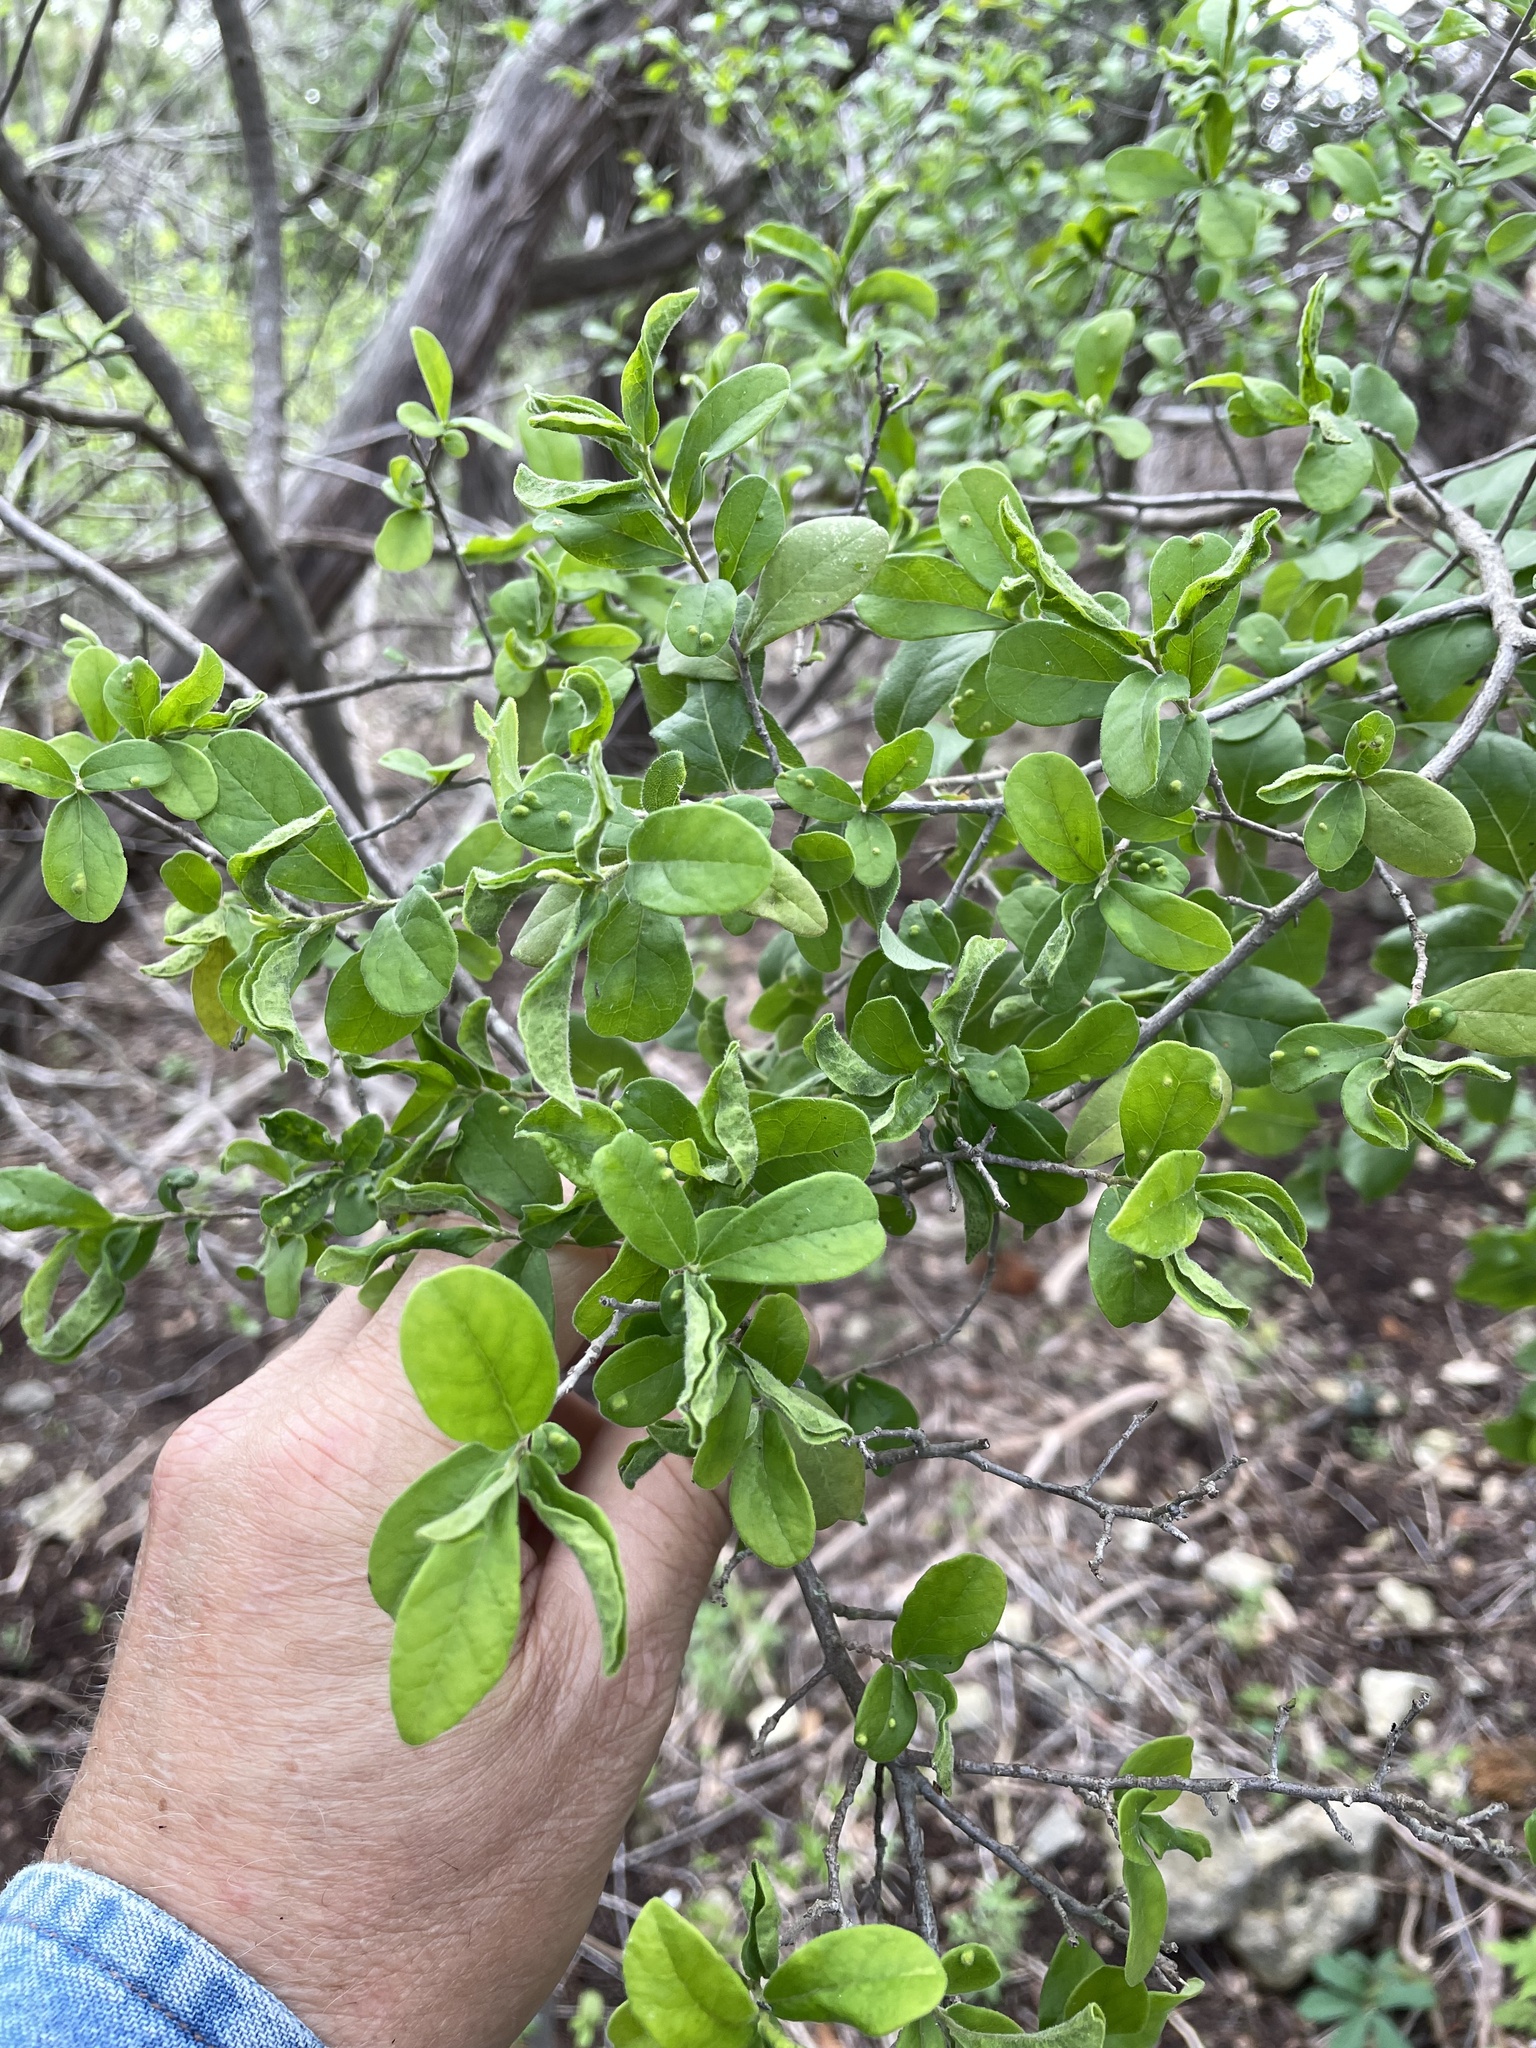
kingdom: Plantae
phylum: Tracheophyta
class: Magnoliopsida
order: Ericales
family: Ebenaceae
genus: Diospyros
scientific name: Diospyros texana
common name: Texas persimmon
